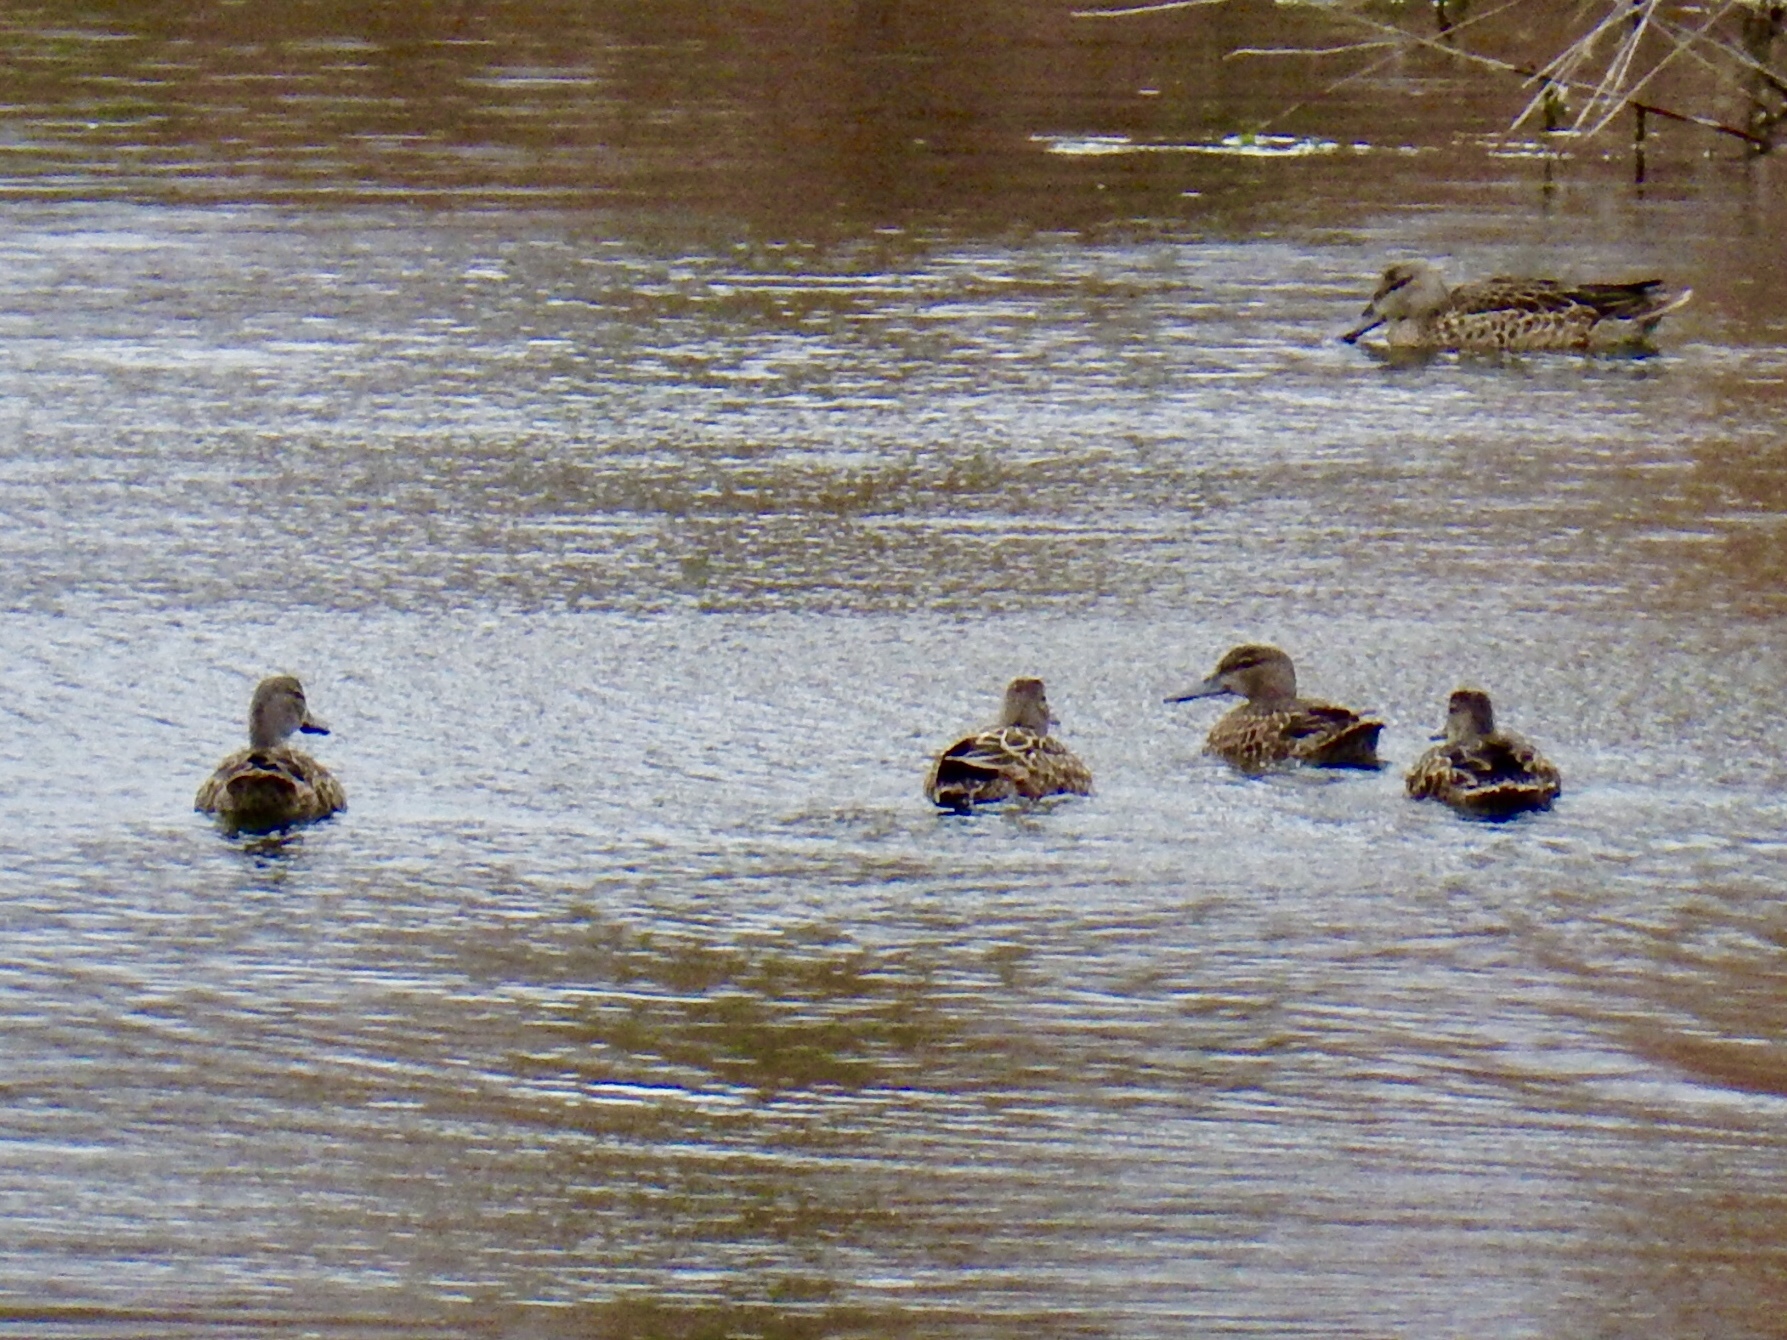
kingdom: Animalia
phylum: Chordata
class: Aves
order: Anseriformes
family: Anatidae
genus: Spatula
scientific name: Spatula cyanoptera
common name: Cinnamon teal
